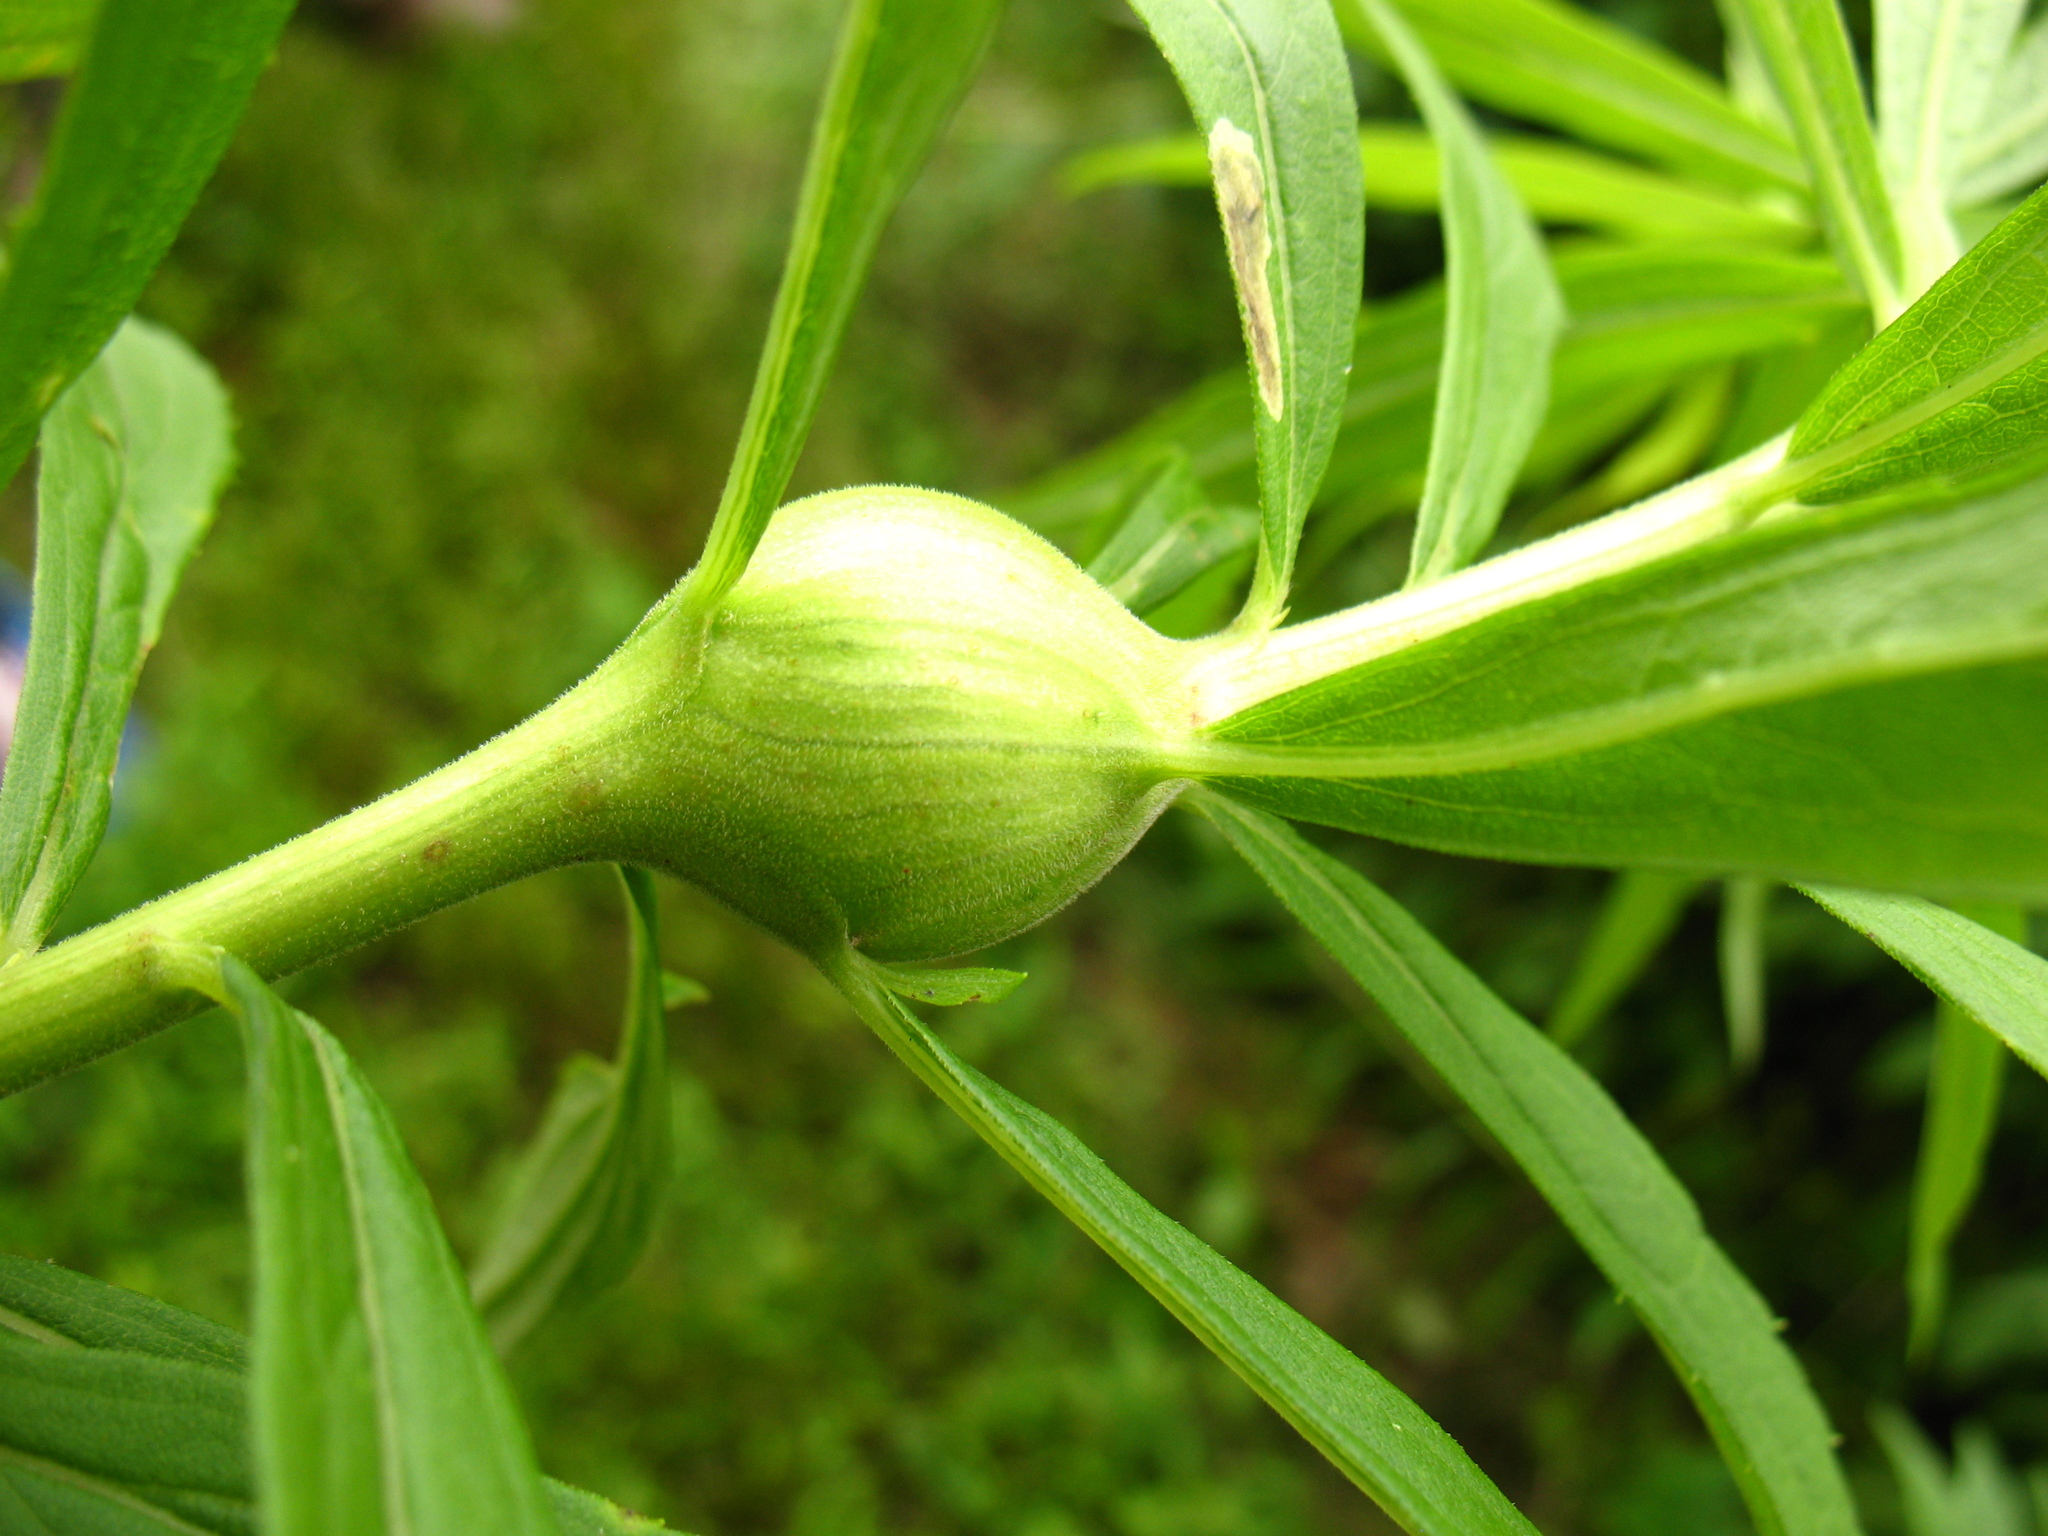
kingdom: Animalia
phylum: Arthropoda
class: Insecta
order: Diptera
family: Tephritidae
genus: Eurosta
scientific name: Eurosta solidaginis
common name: Goldenrod gall fly
